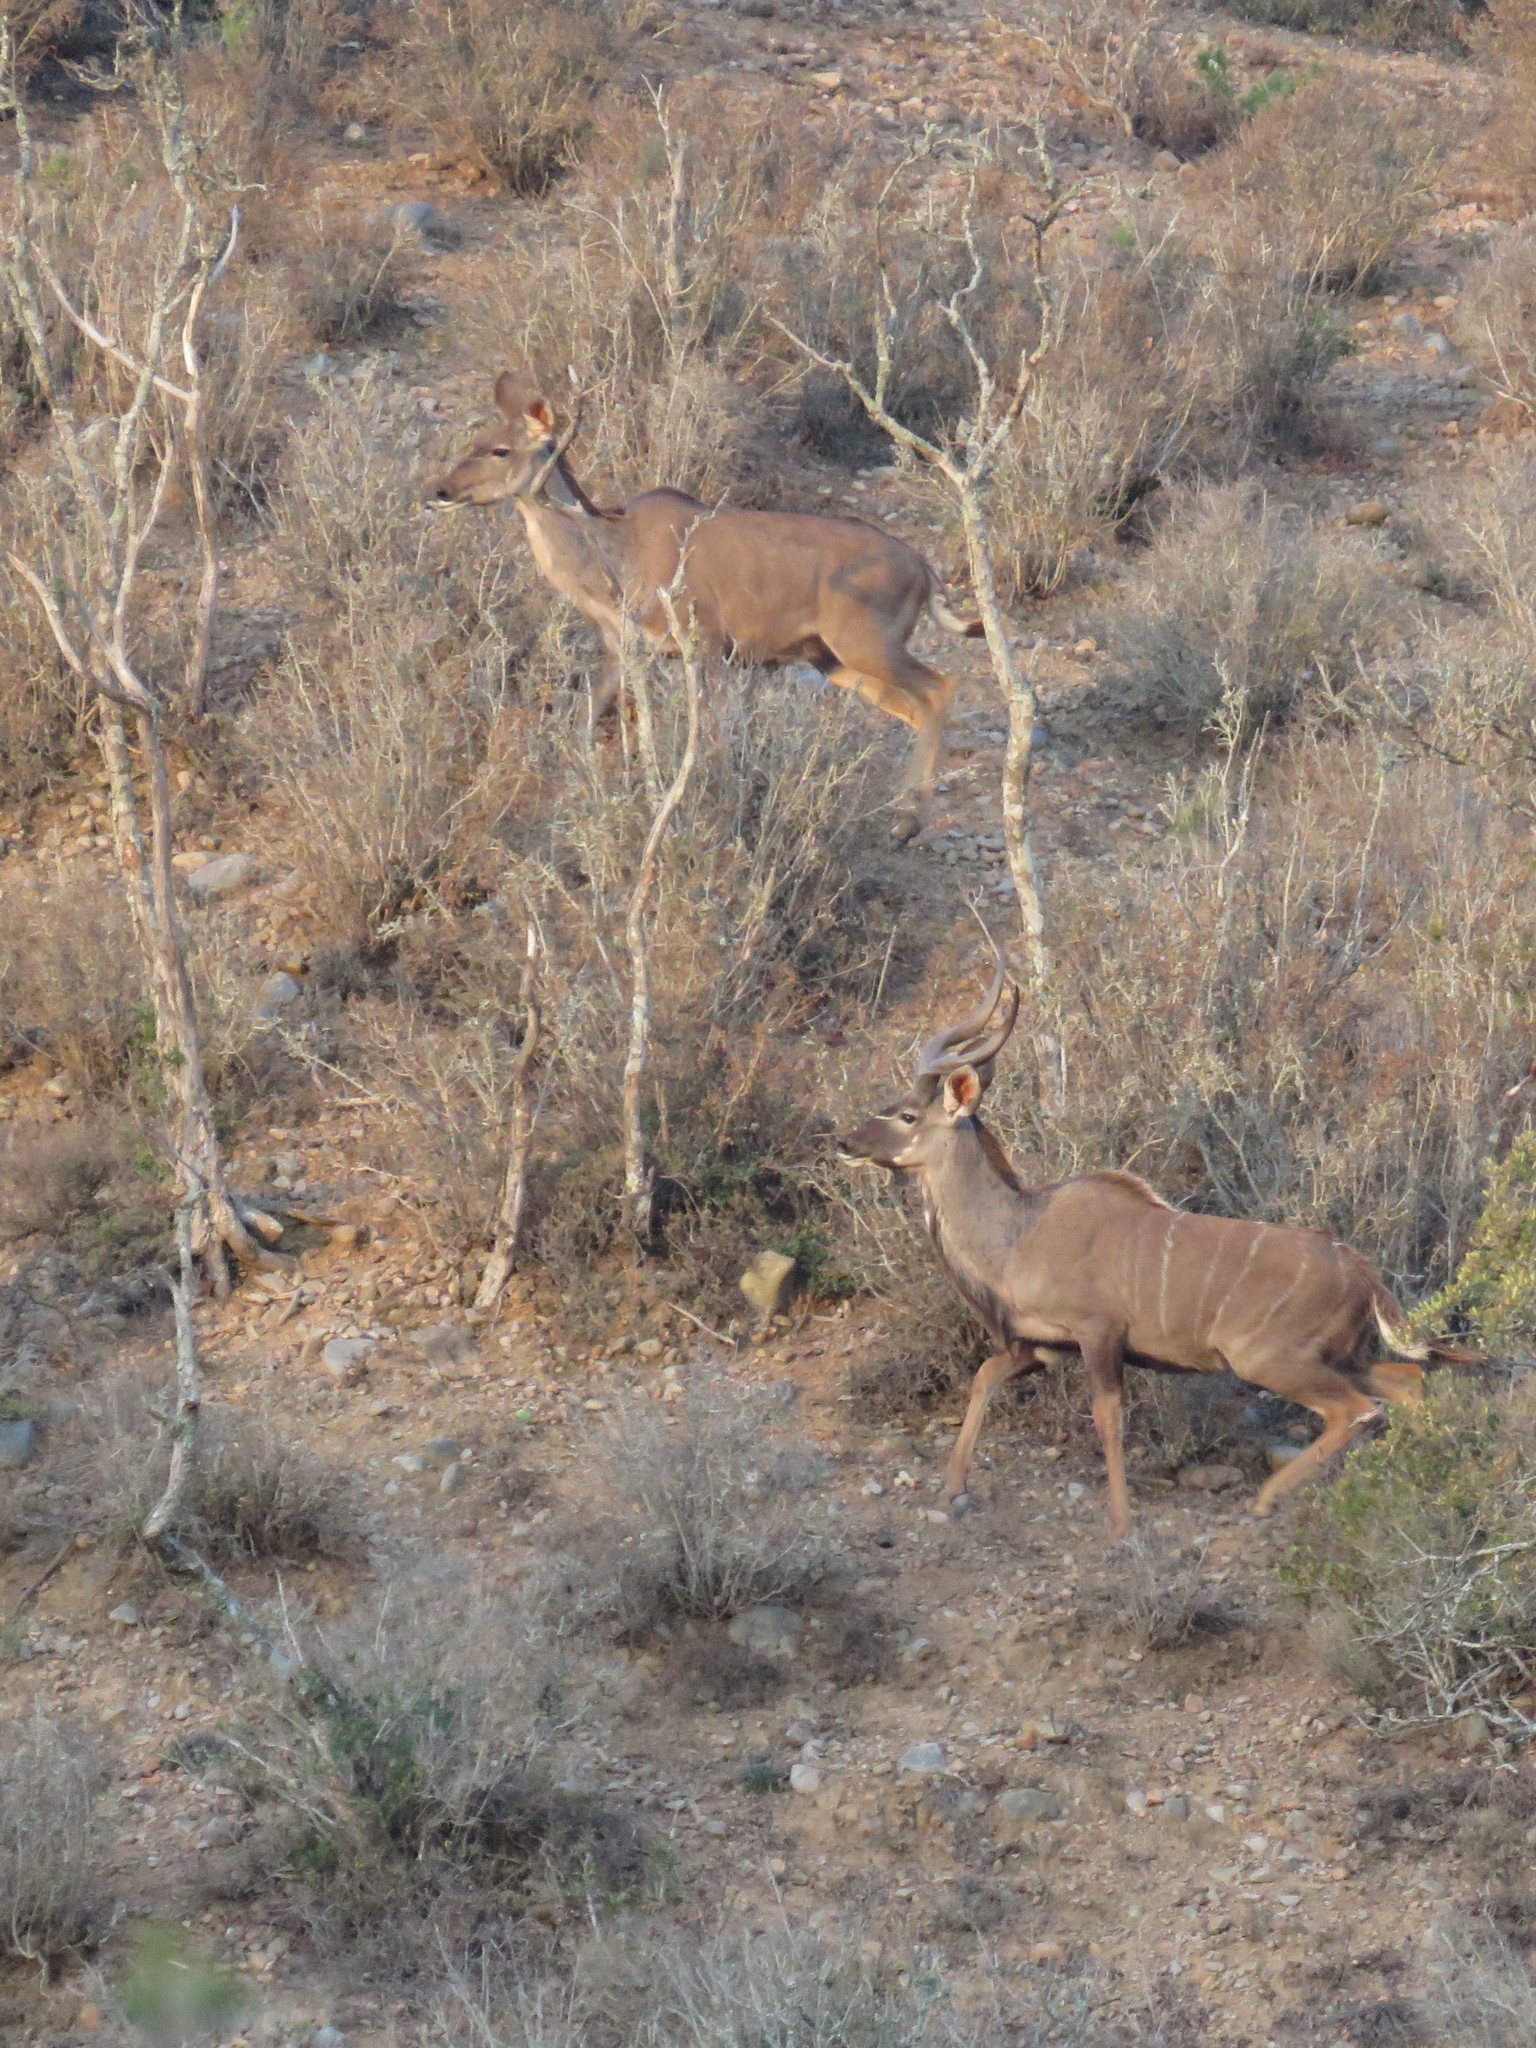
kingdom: Animalia
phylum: Chordata
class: Mammalia
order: Artiodactyla
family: Bovidae
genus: Tragelaphus
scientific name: Tragelaphus strepsiceros
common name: Greater kudu
